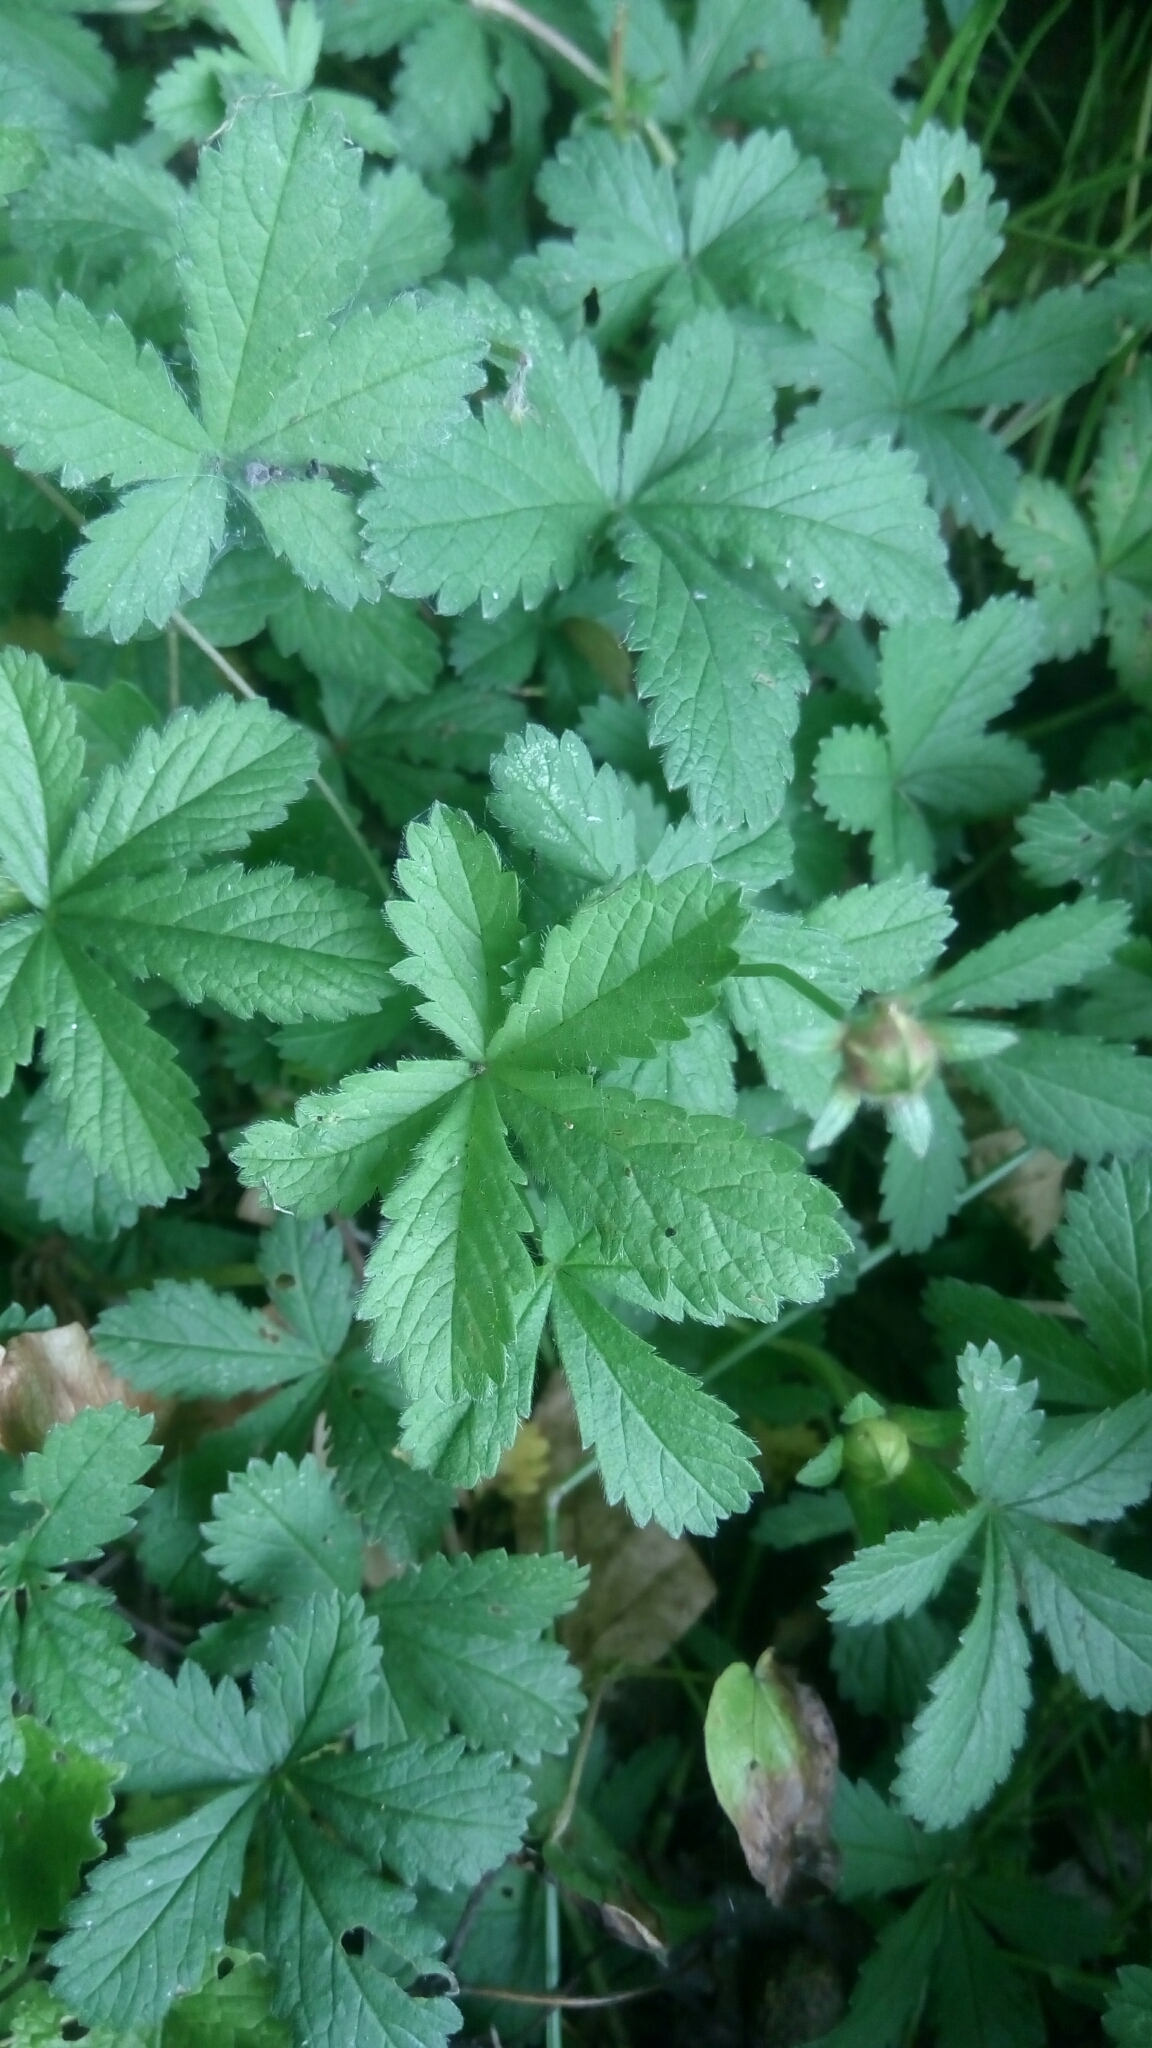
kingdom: Plantae
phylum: Tracheophyta
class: Magnoliopsida
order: Rosales
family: Rosaceae
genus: Potentilla
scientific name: Potentilla reptans
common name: Creeping cinquefoil
